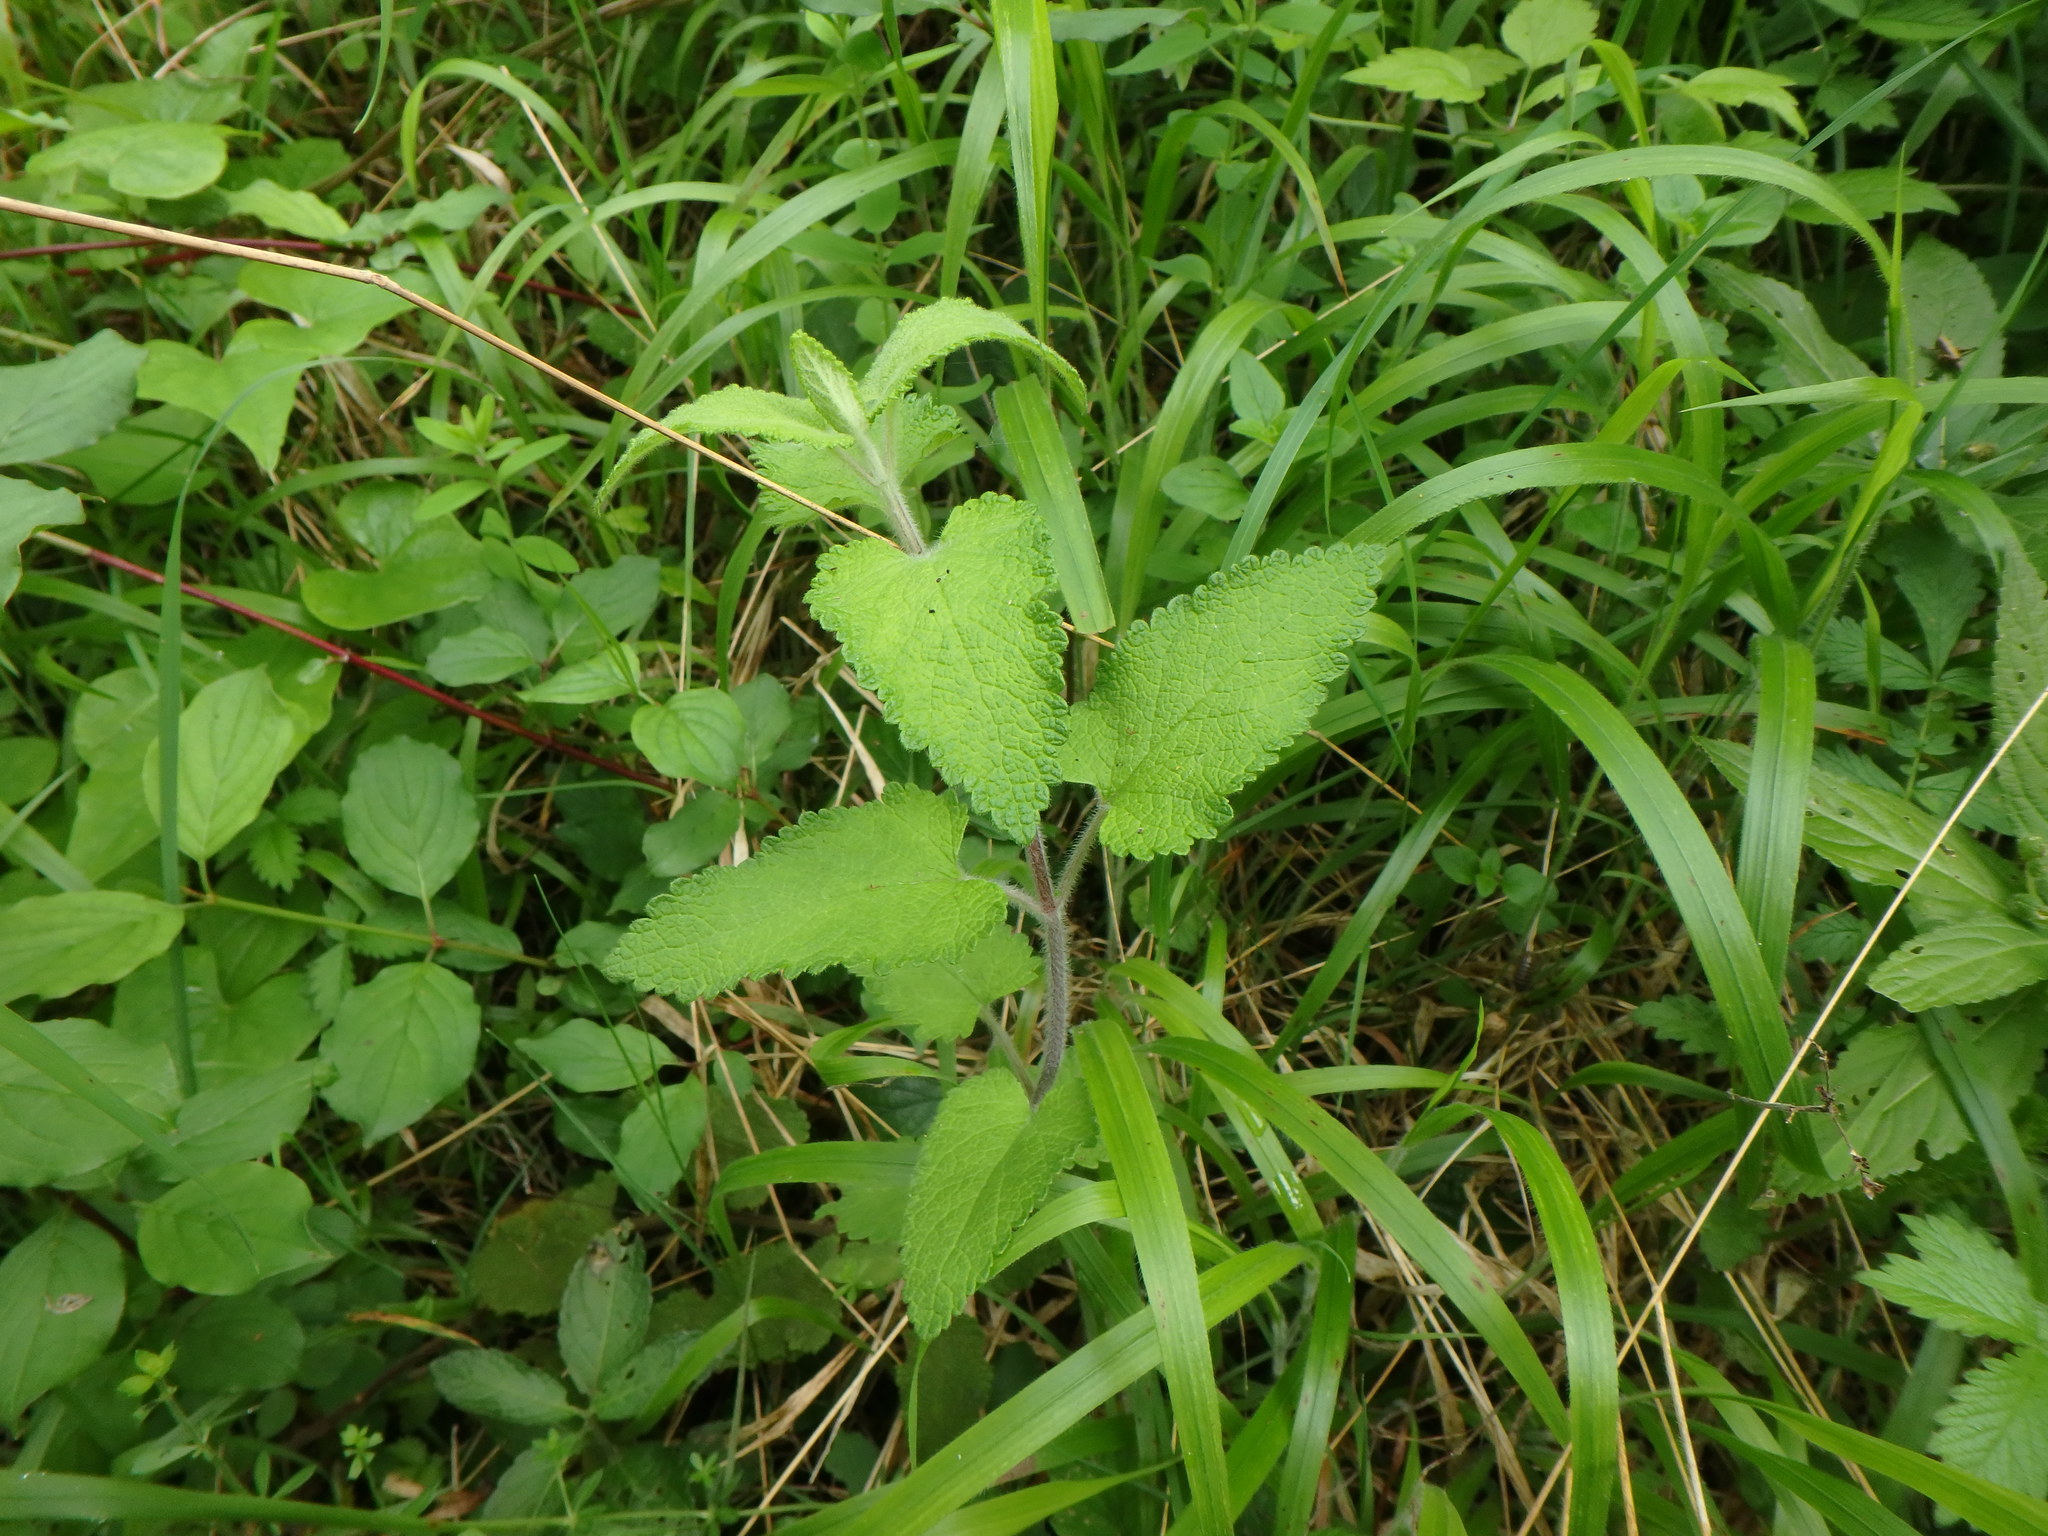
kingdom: Plantae
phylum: Tracheophyta
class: Magnoliopsida
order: Lamiales
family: Lamiaceae
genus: Teucrium
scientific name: Teucrium scorodonia
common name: Woodland germander
